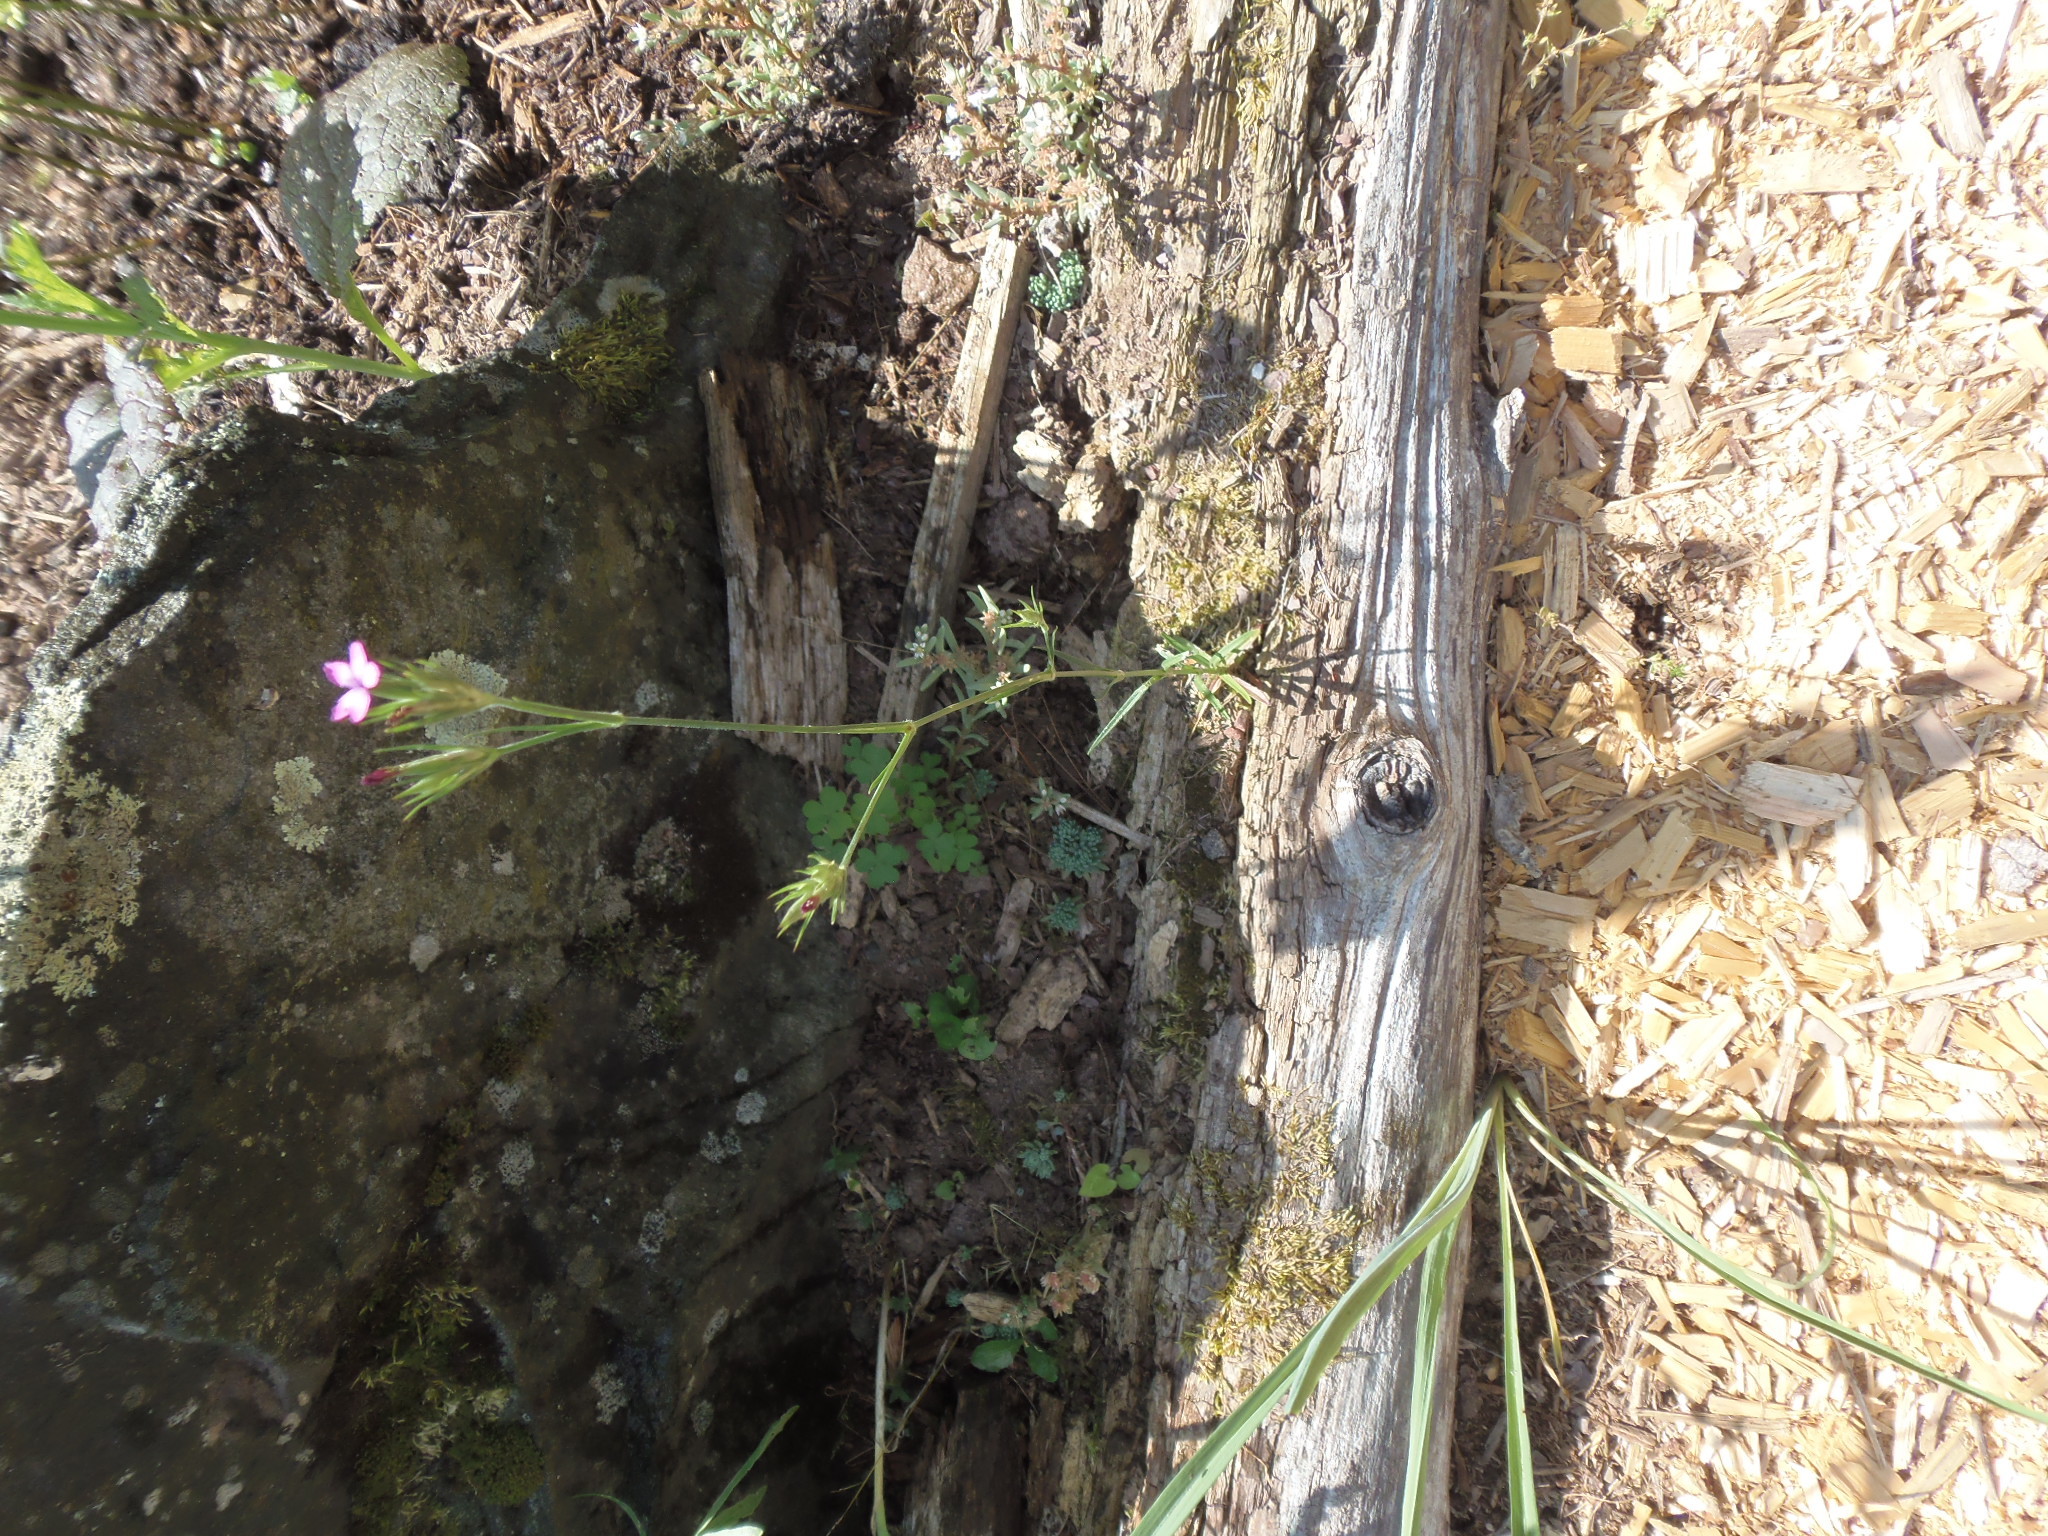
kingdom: Plantae
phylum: Tracheophyta
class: Magnoliopsida
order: Caryophyllales
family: Caryophyllaceae
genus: Dianthus
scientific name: Dianthus armeria
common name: Deptford pink
